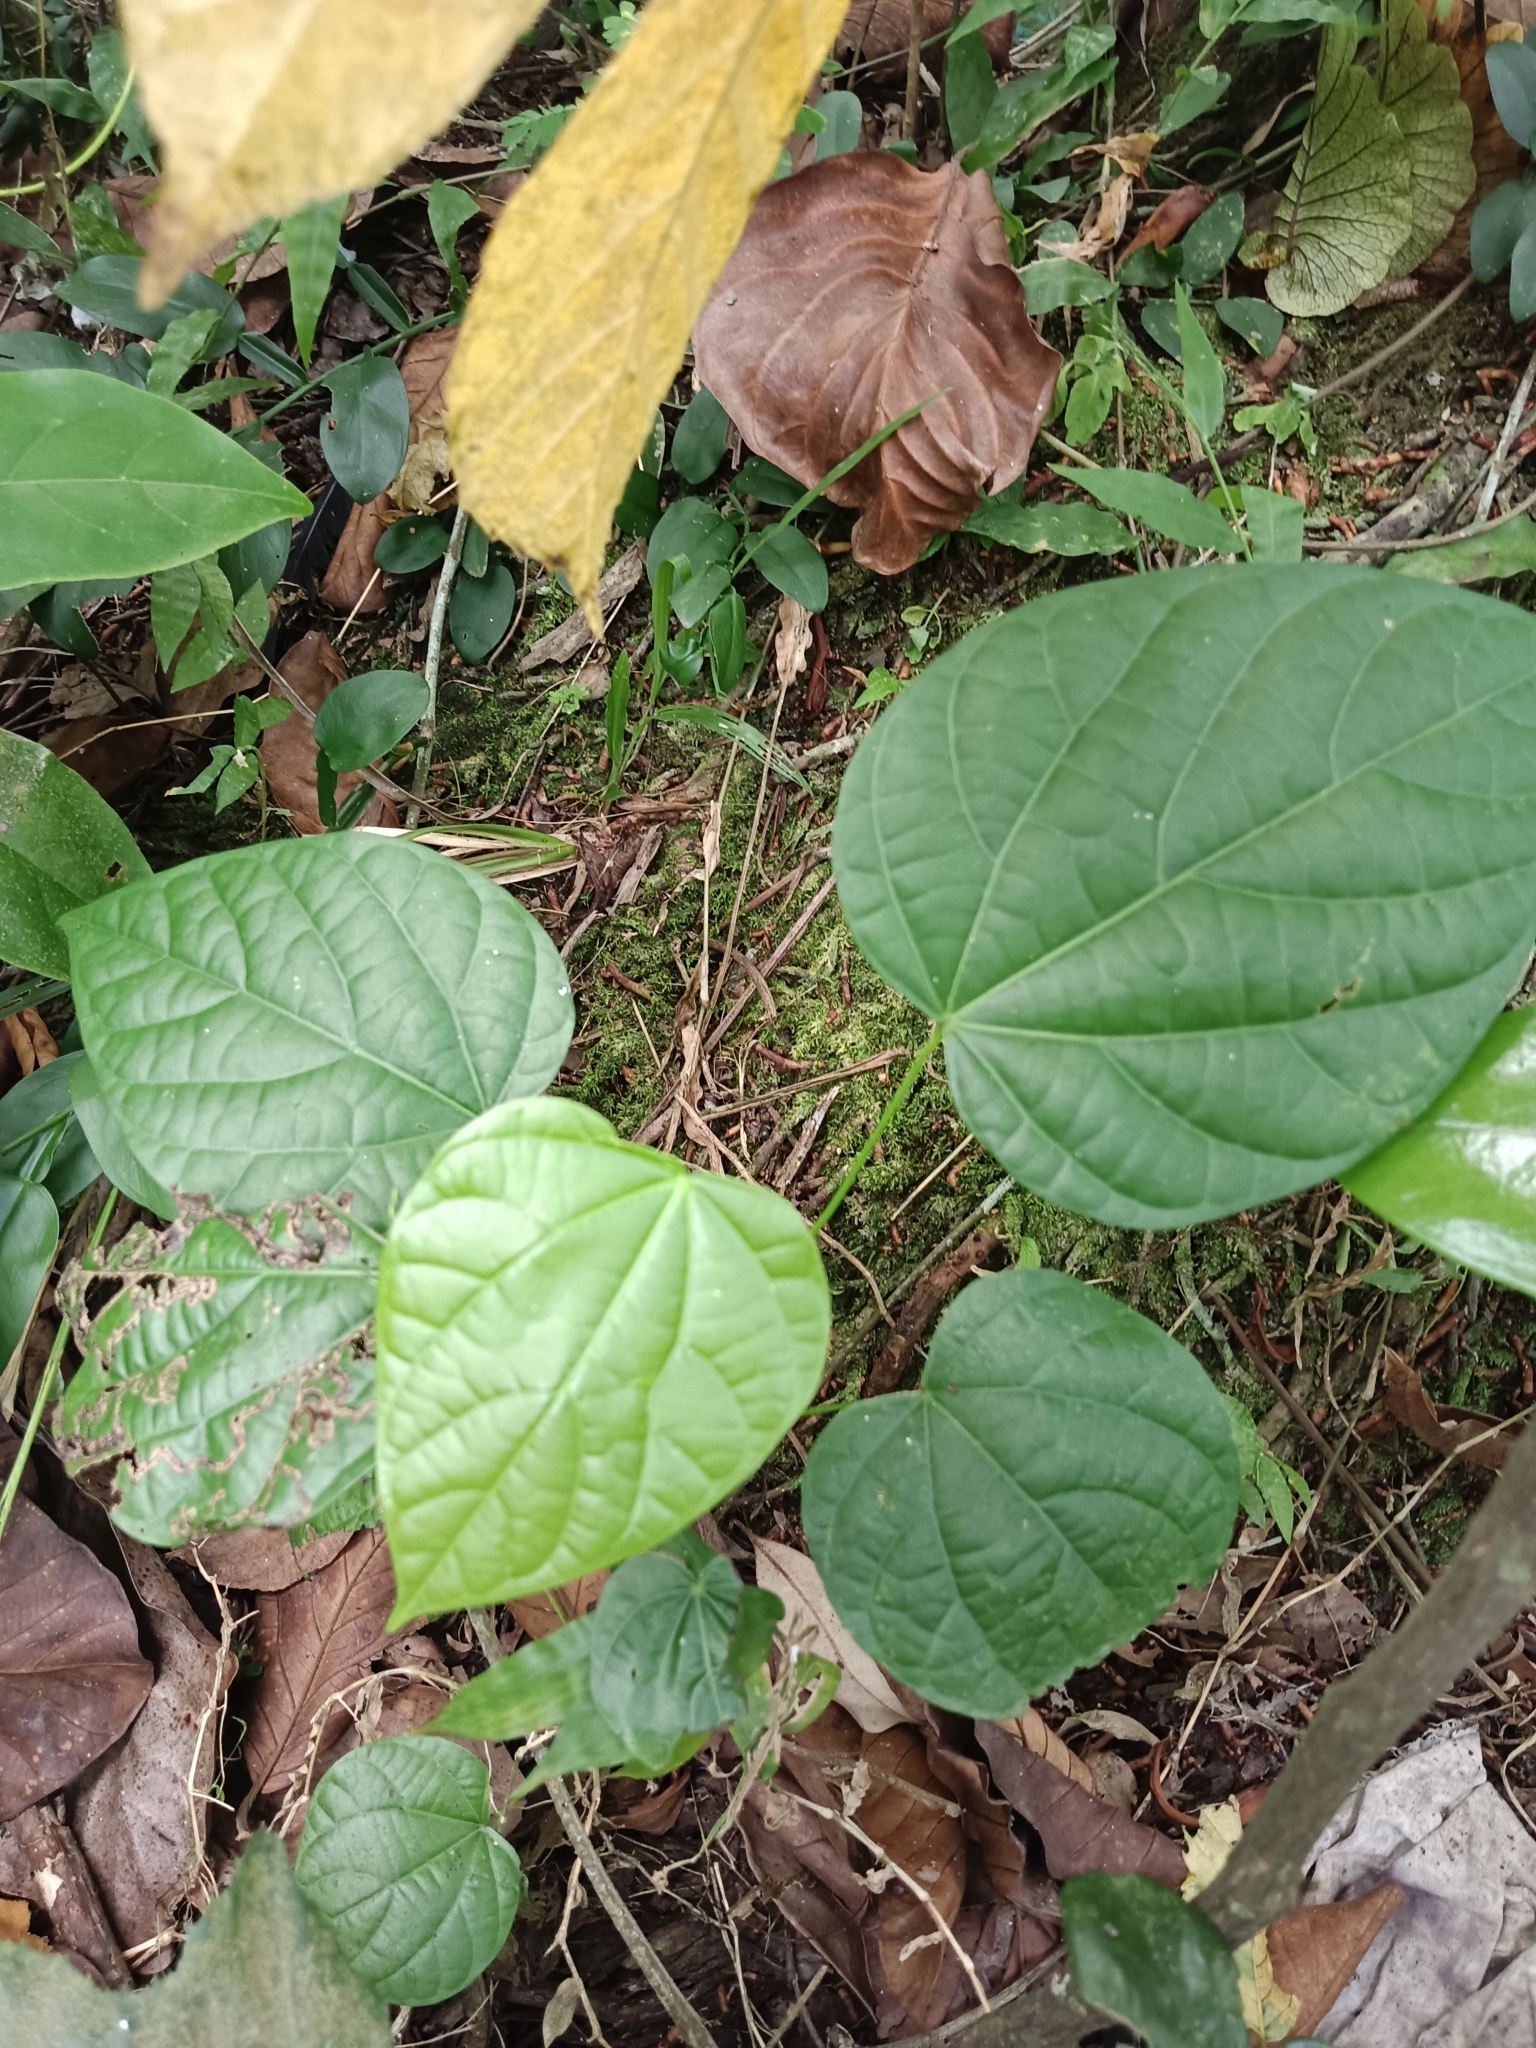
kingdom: Plantae
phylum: Tracheophyta
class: Magnoliopsida
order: Ranunculales
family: Menispermaceae
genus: Anamirta
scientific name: Anamirta cocculus
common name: Levantnut
